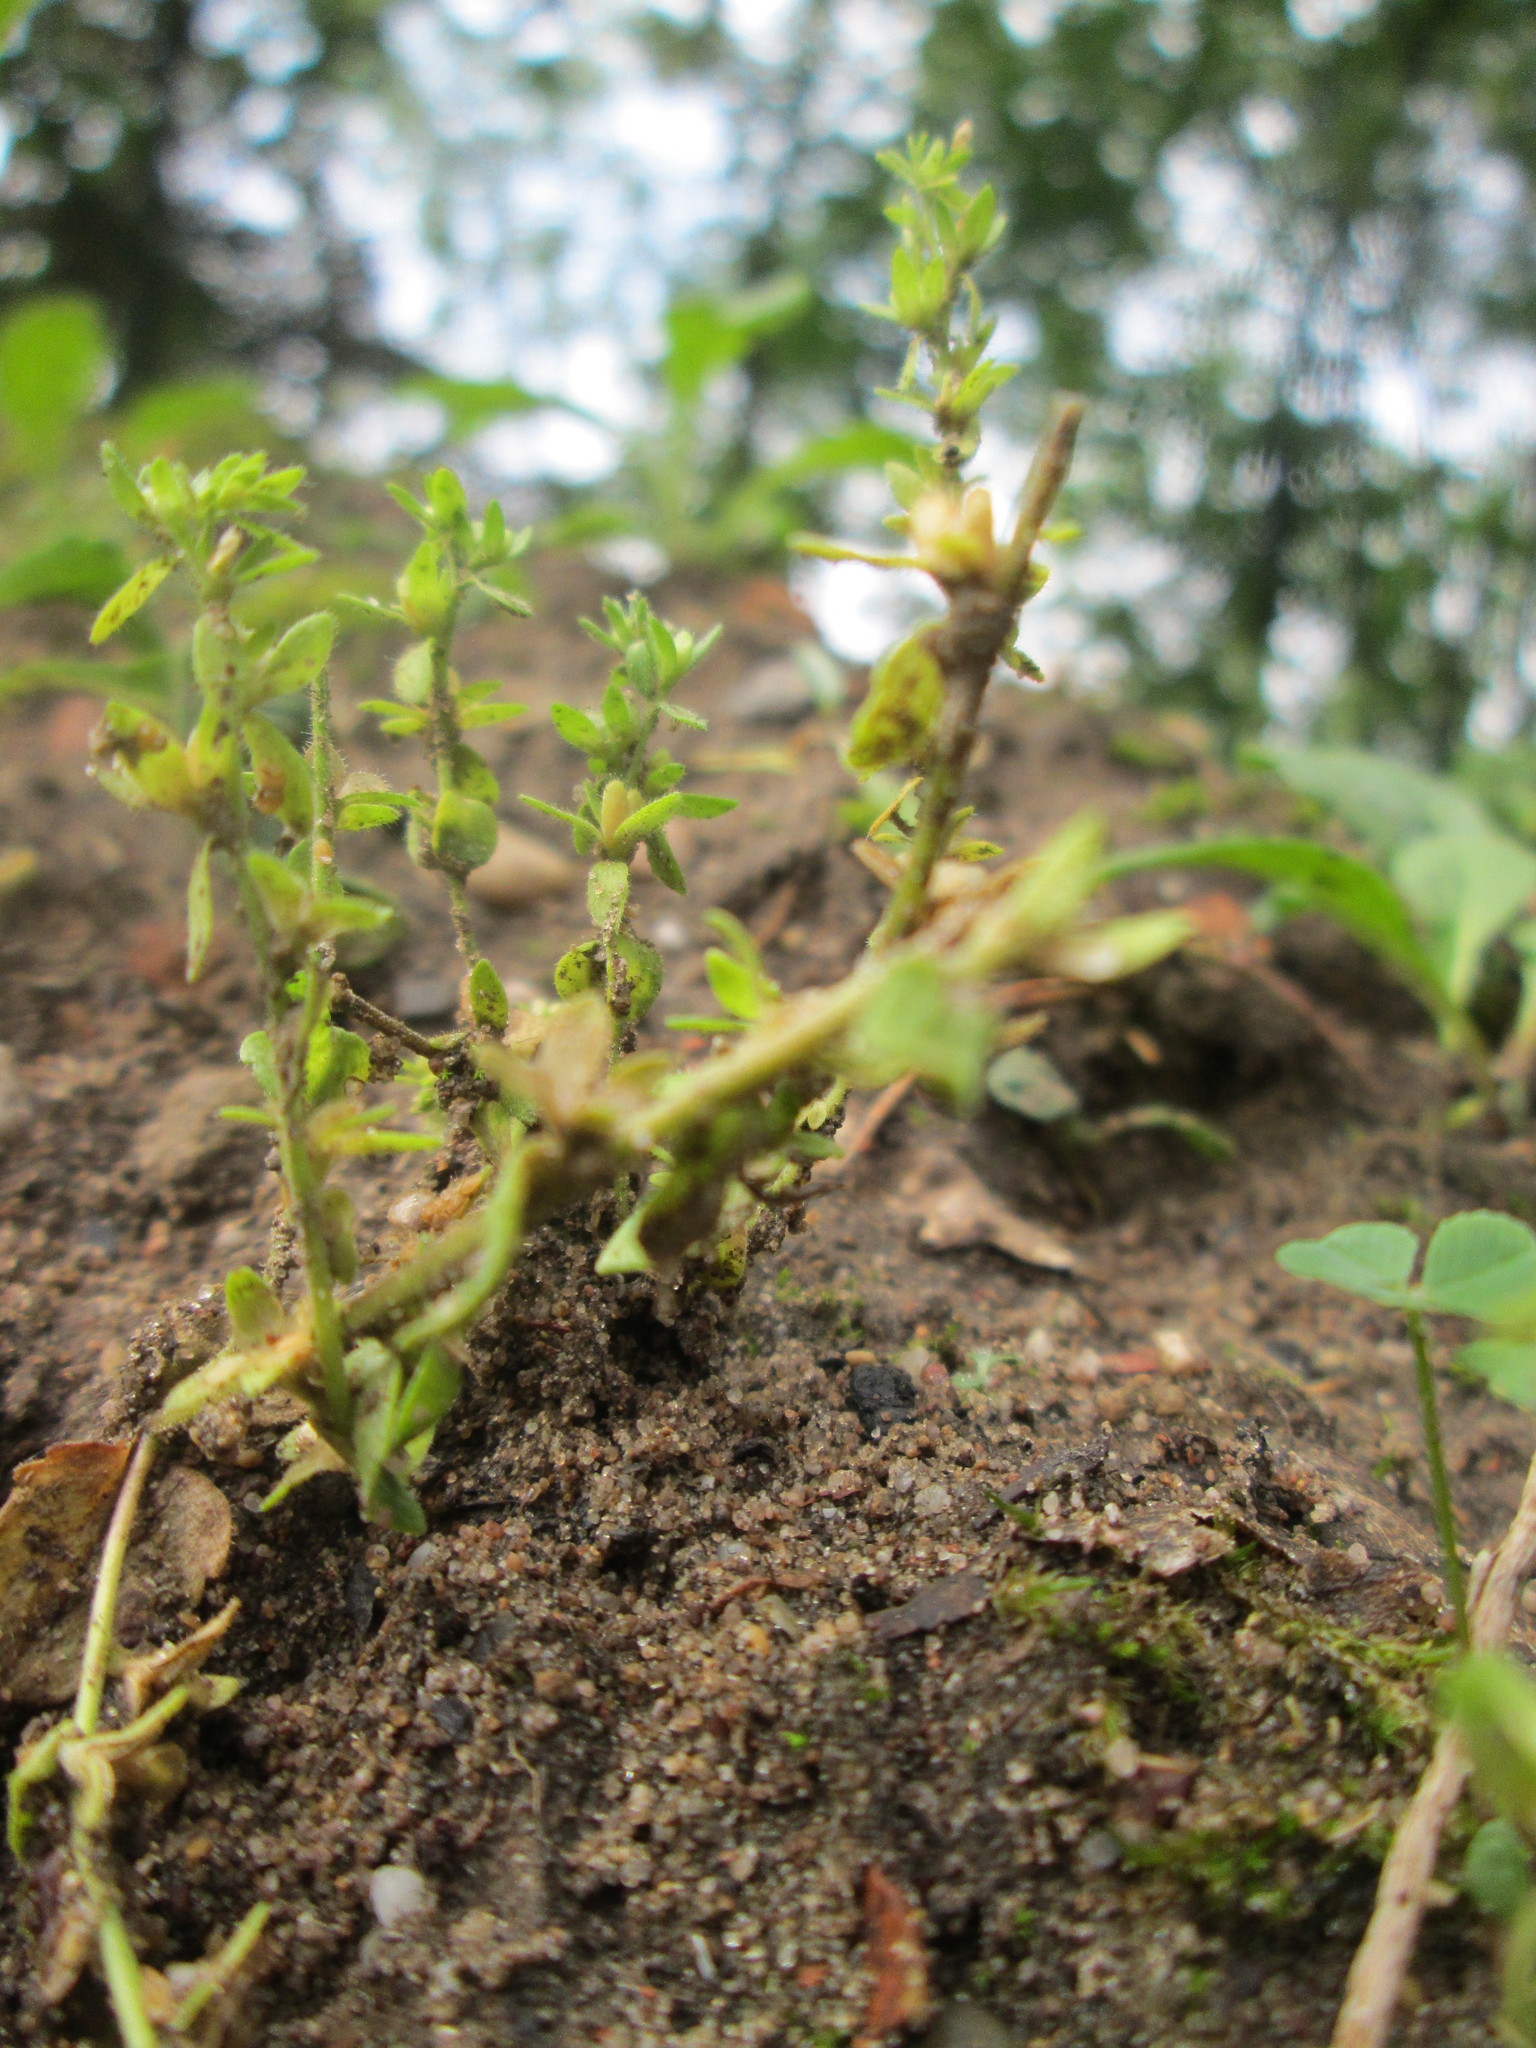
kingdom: Plantae
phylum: Tracheophyta
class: Magnoliopsida
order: Lamiales
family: Plantaginaceae
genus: Veronica
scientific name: Veronica arvensis
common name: Corn speedwell
